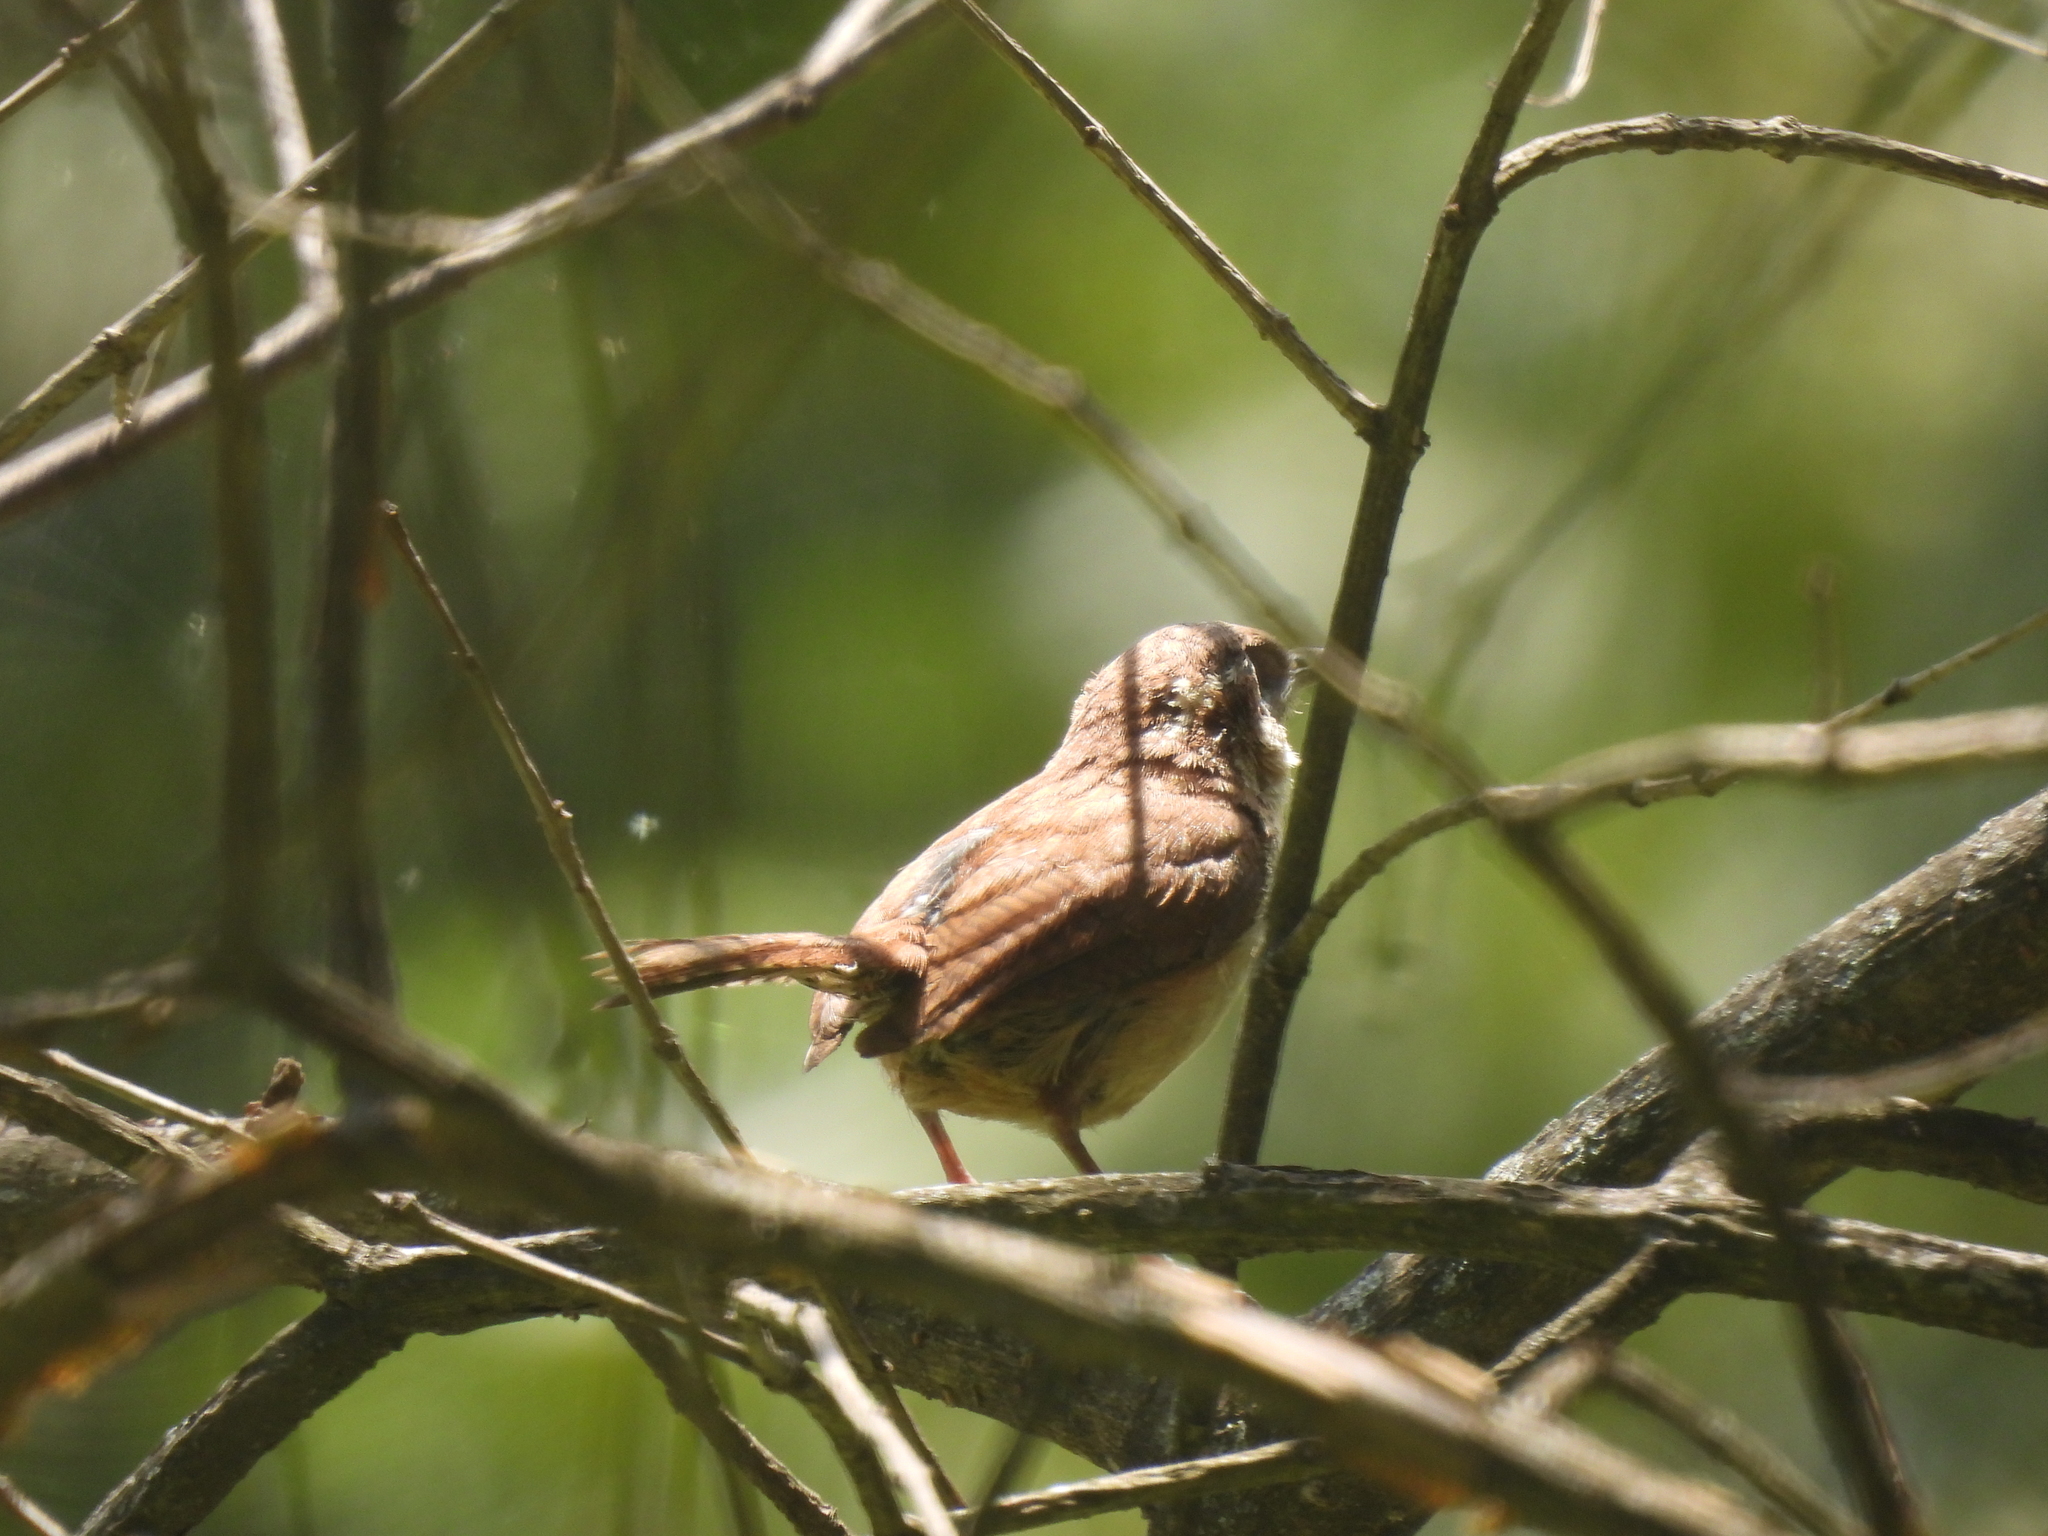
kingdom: Animalia
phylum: Chordata
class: Aves
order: Passeriformes
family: Troglodytidae
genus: Thryothorus
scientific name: Thryothorus ludovicianus
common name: Carolina wren
